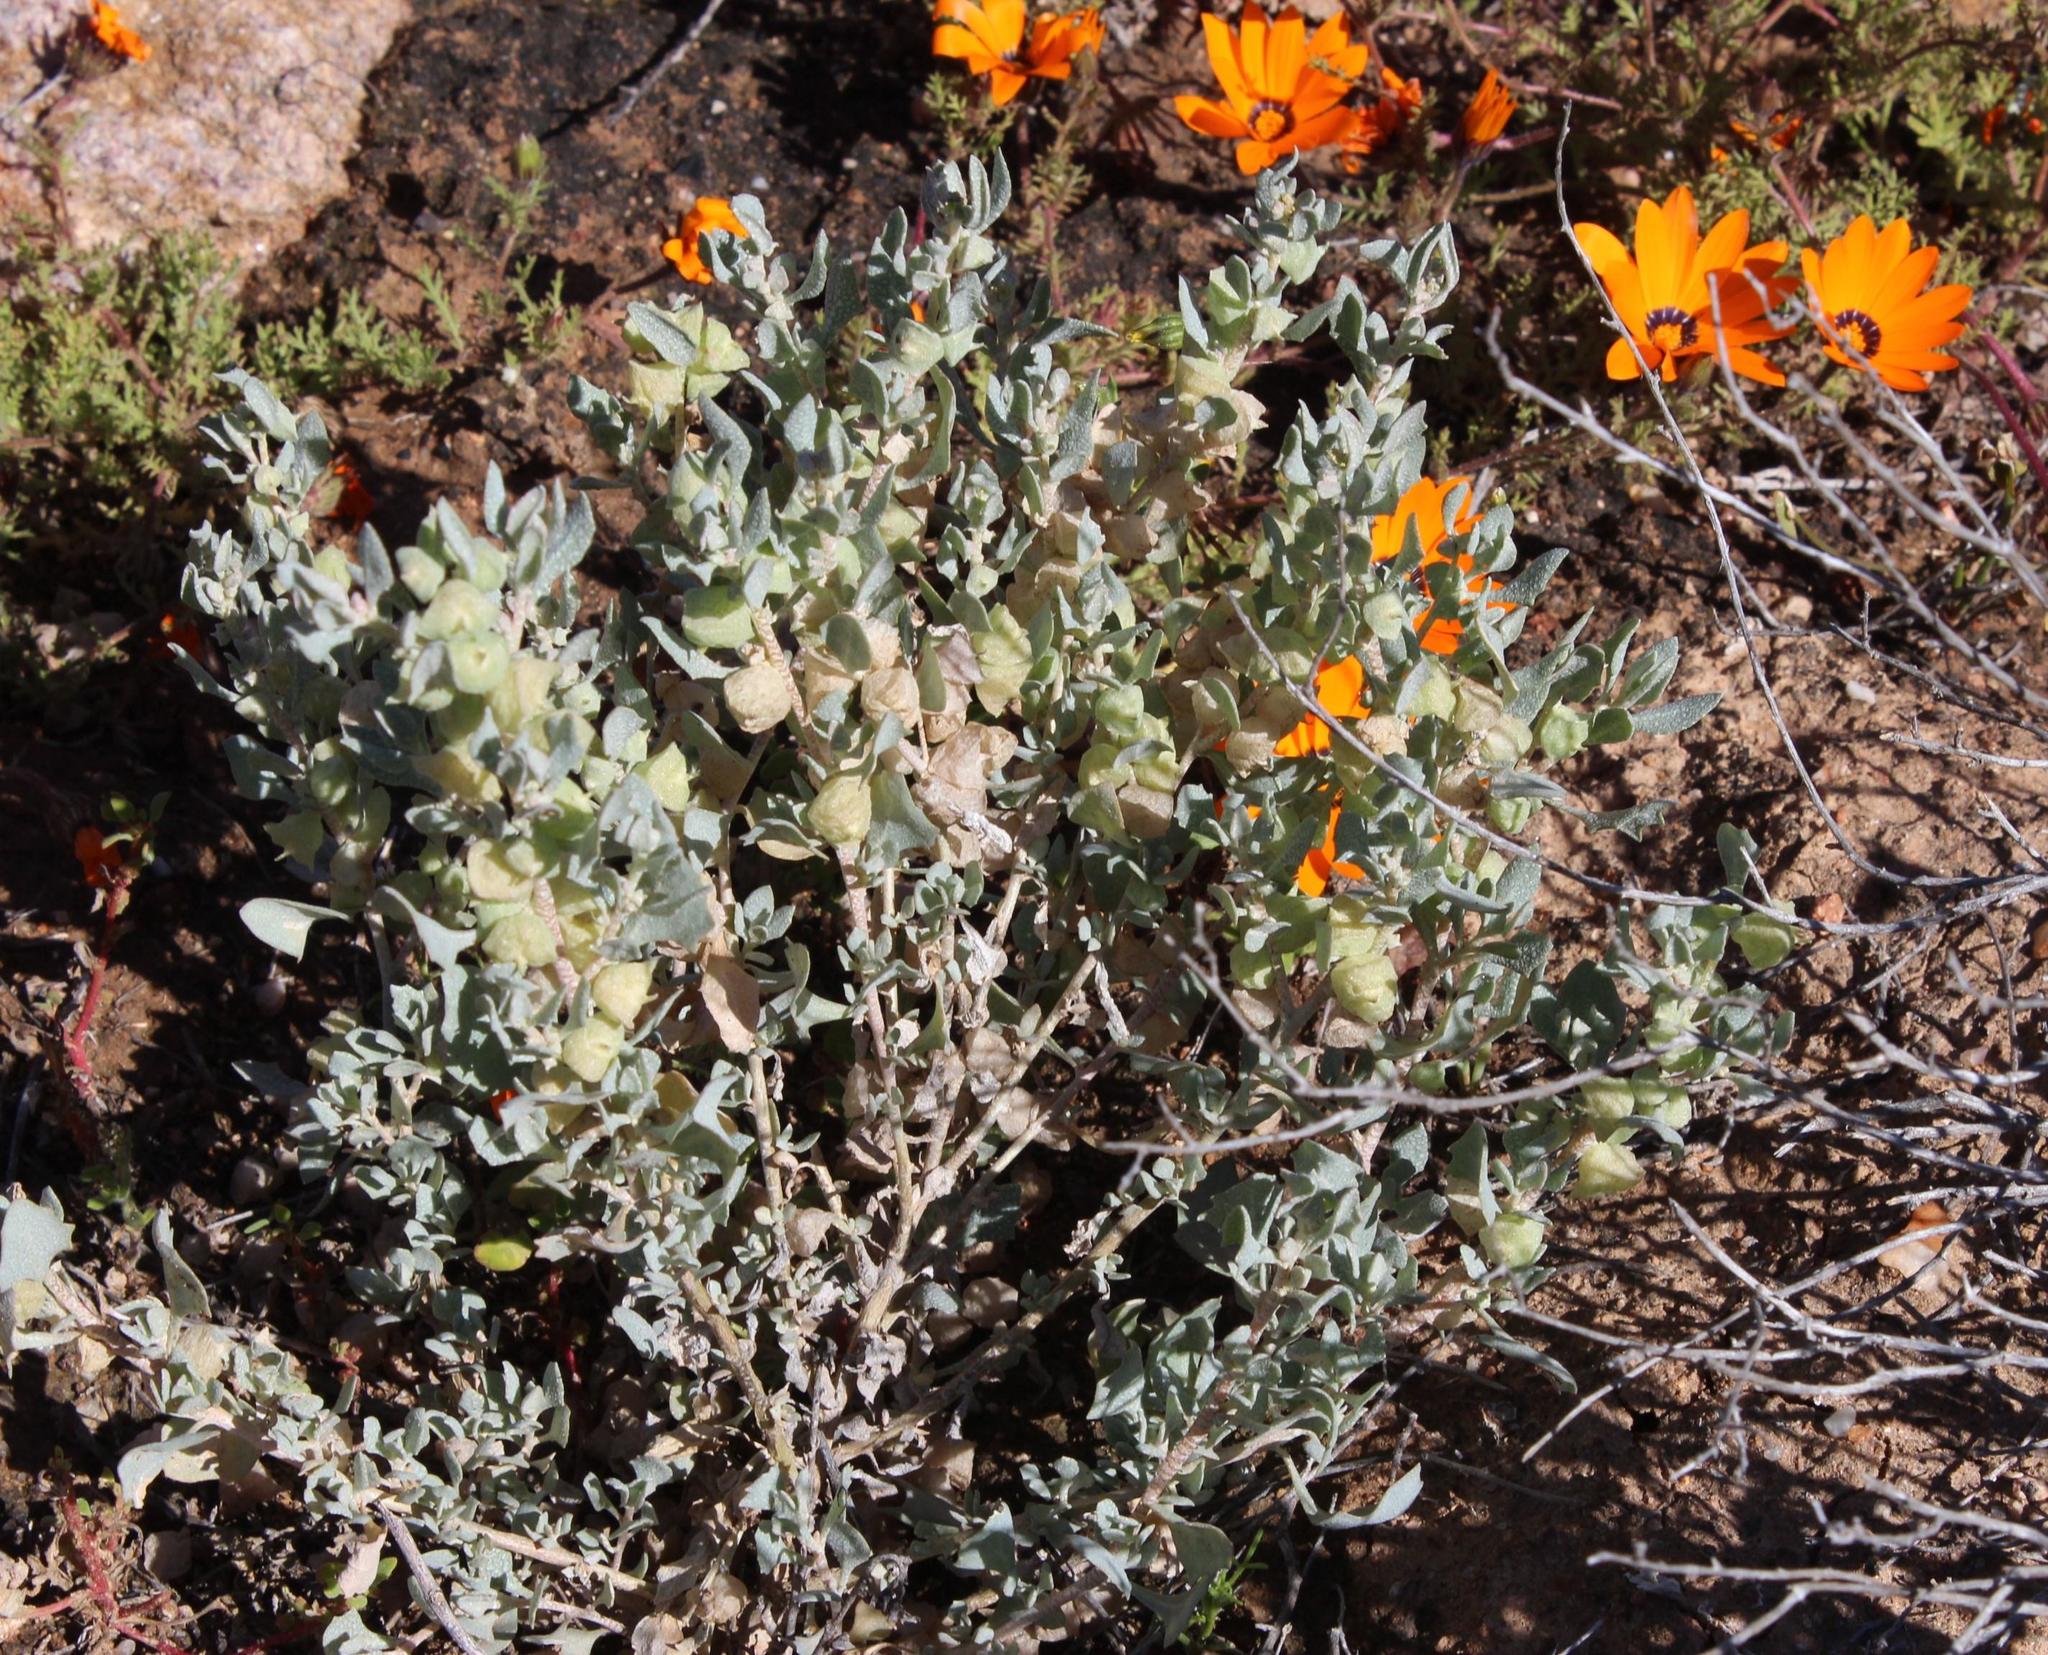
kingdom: Plantae
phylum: Tracheophyta
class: Magnoliopsida
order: Caryophyllales
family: Amaranthaceae
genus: Atriplex
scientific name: Atriplex lindleyi
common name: Lindley's saltbush
